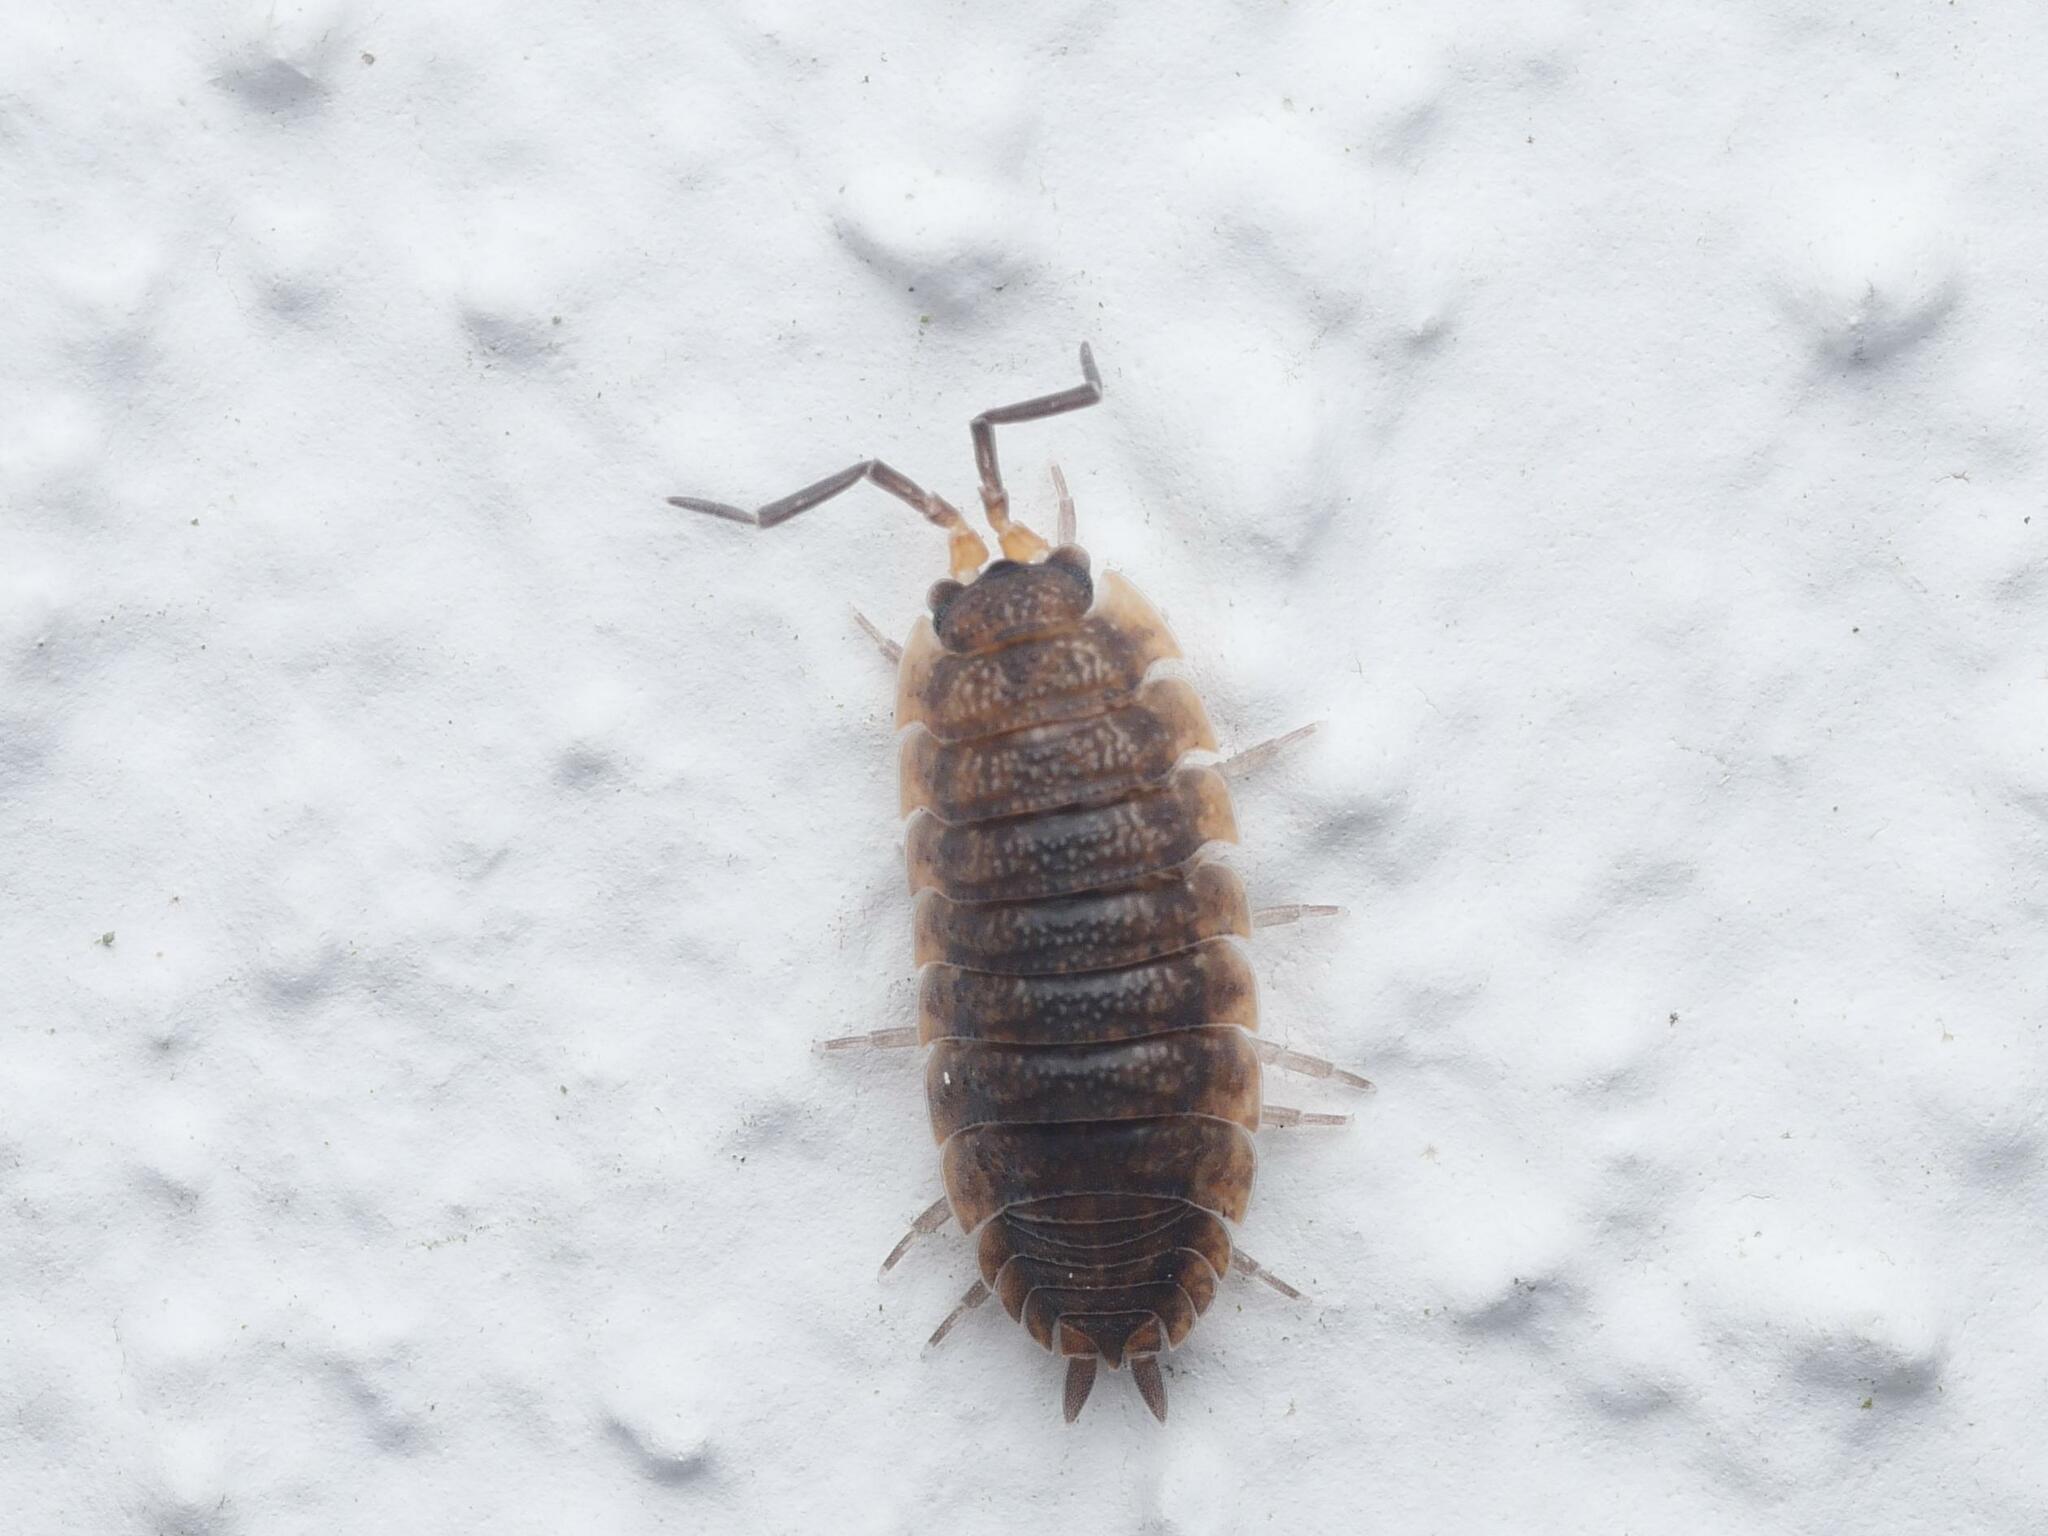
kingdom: Animalia
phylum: Arthropoda
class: Malacostraca
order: Isopoda
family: Porcellionidae
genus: Porcellio
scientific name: Porcellio scaber
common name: Common rough woodlouse
